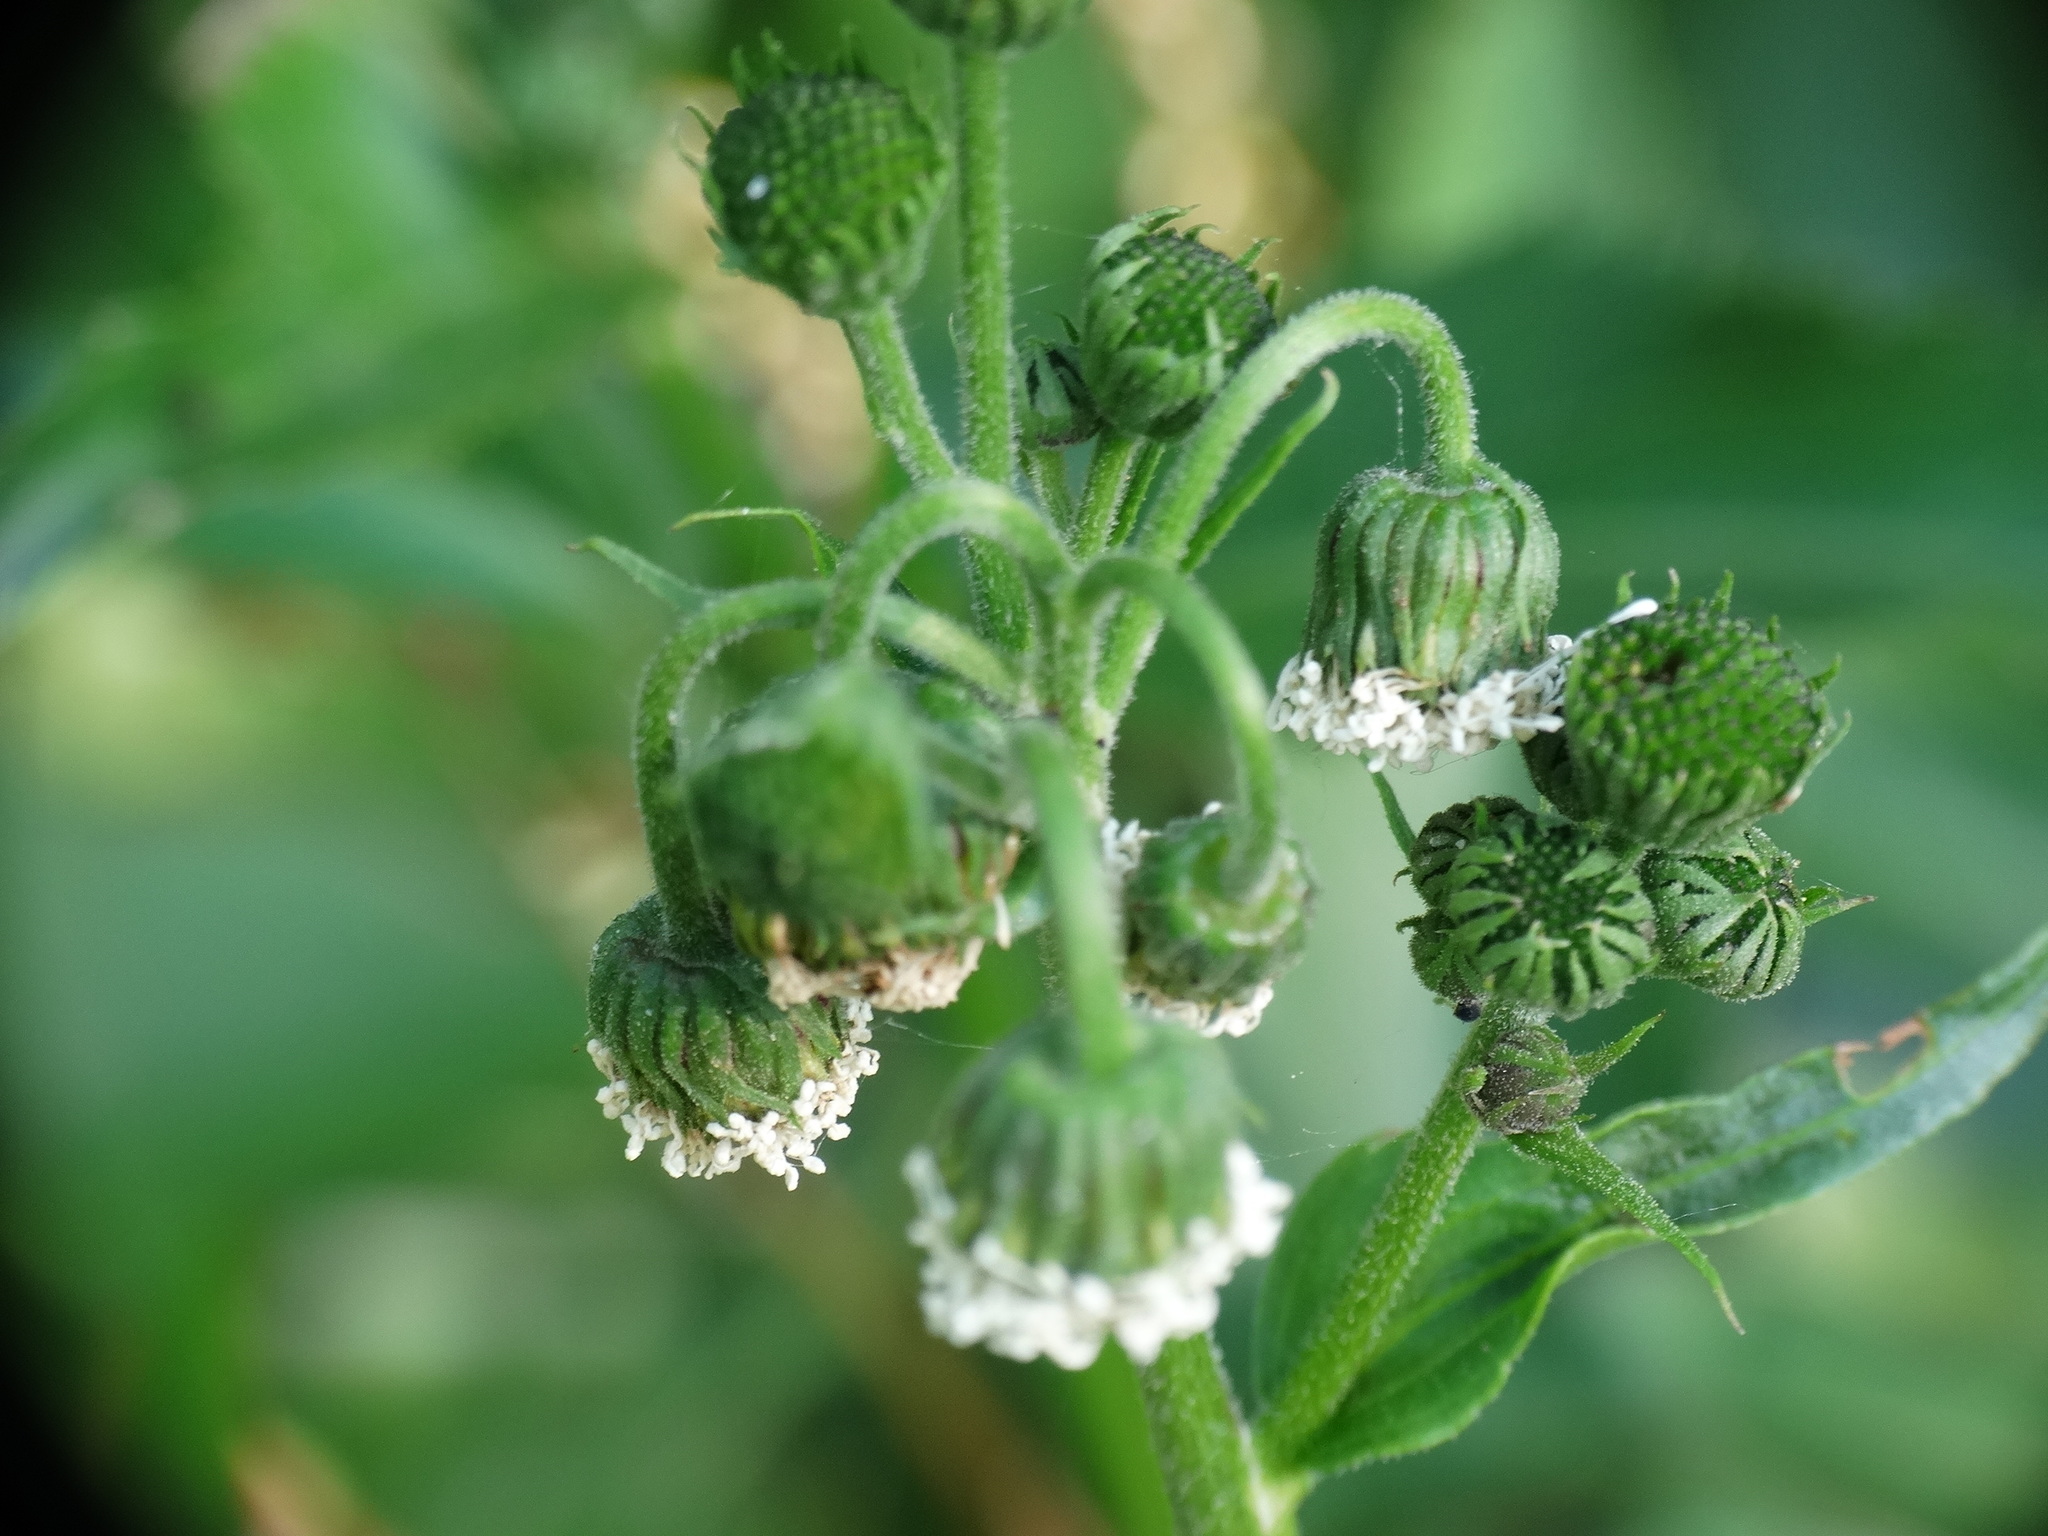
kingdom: Plantae
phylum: Tracheophyta
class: Magnoliopsida
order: Asterales
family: Asteraceae
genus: Gymnocoronis
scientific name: Gymnocoronis spilanthoides
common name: Senegal teaplant
